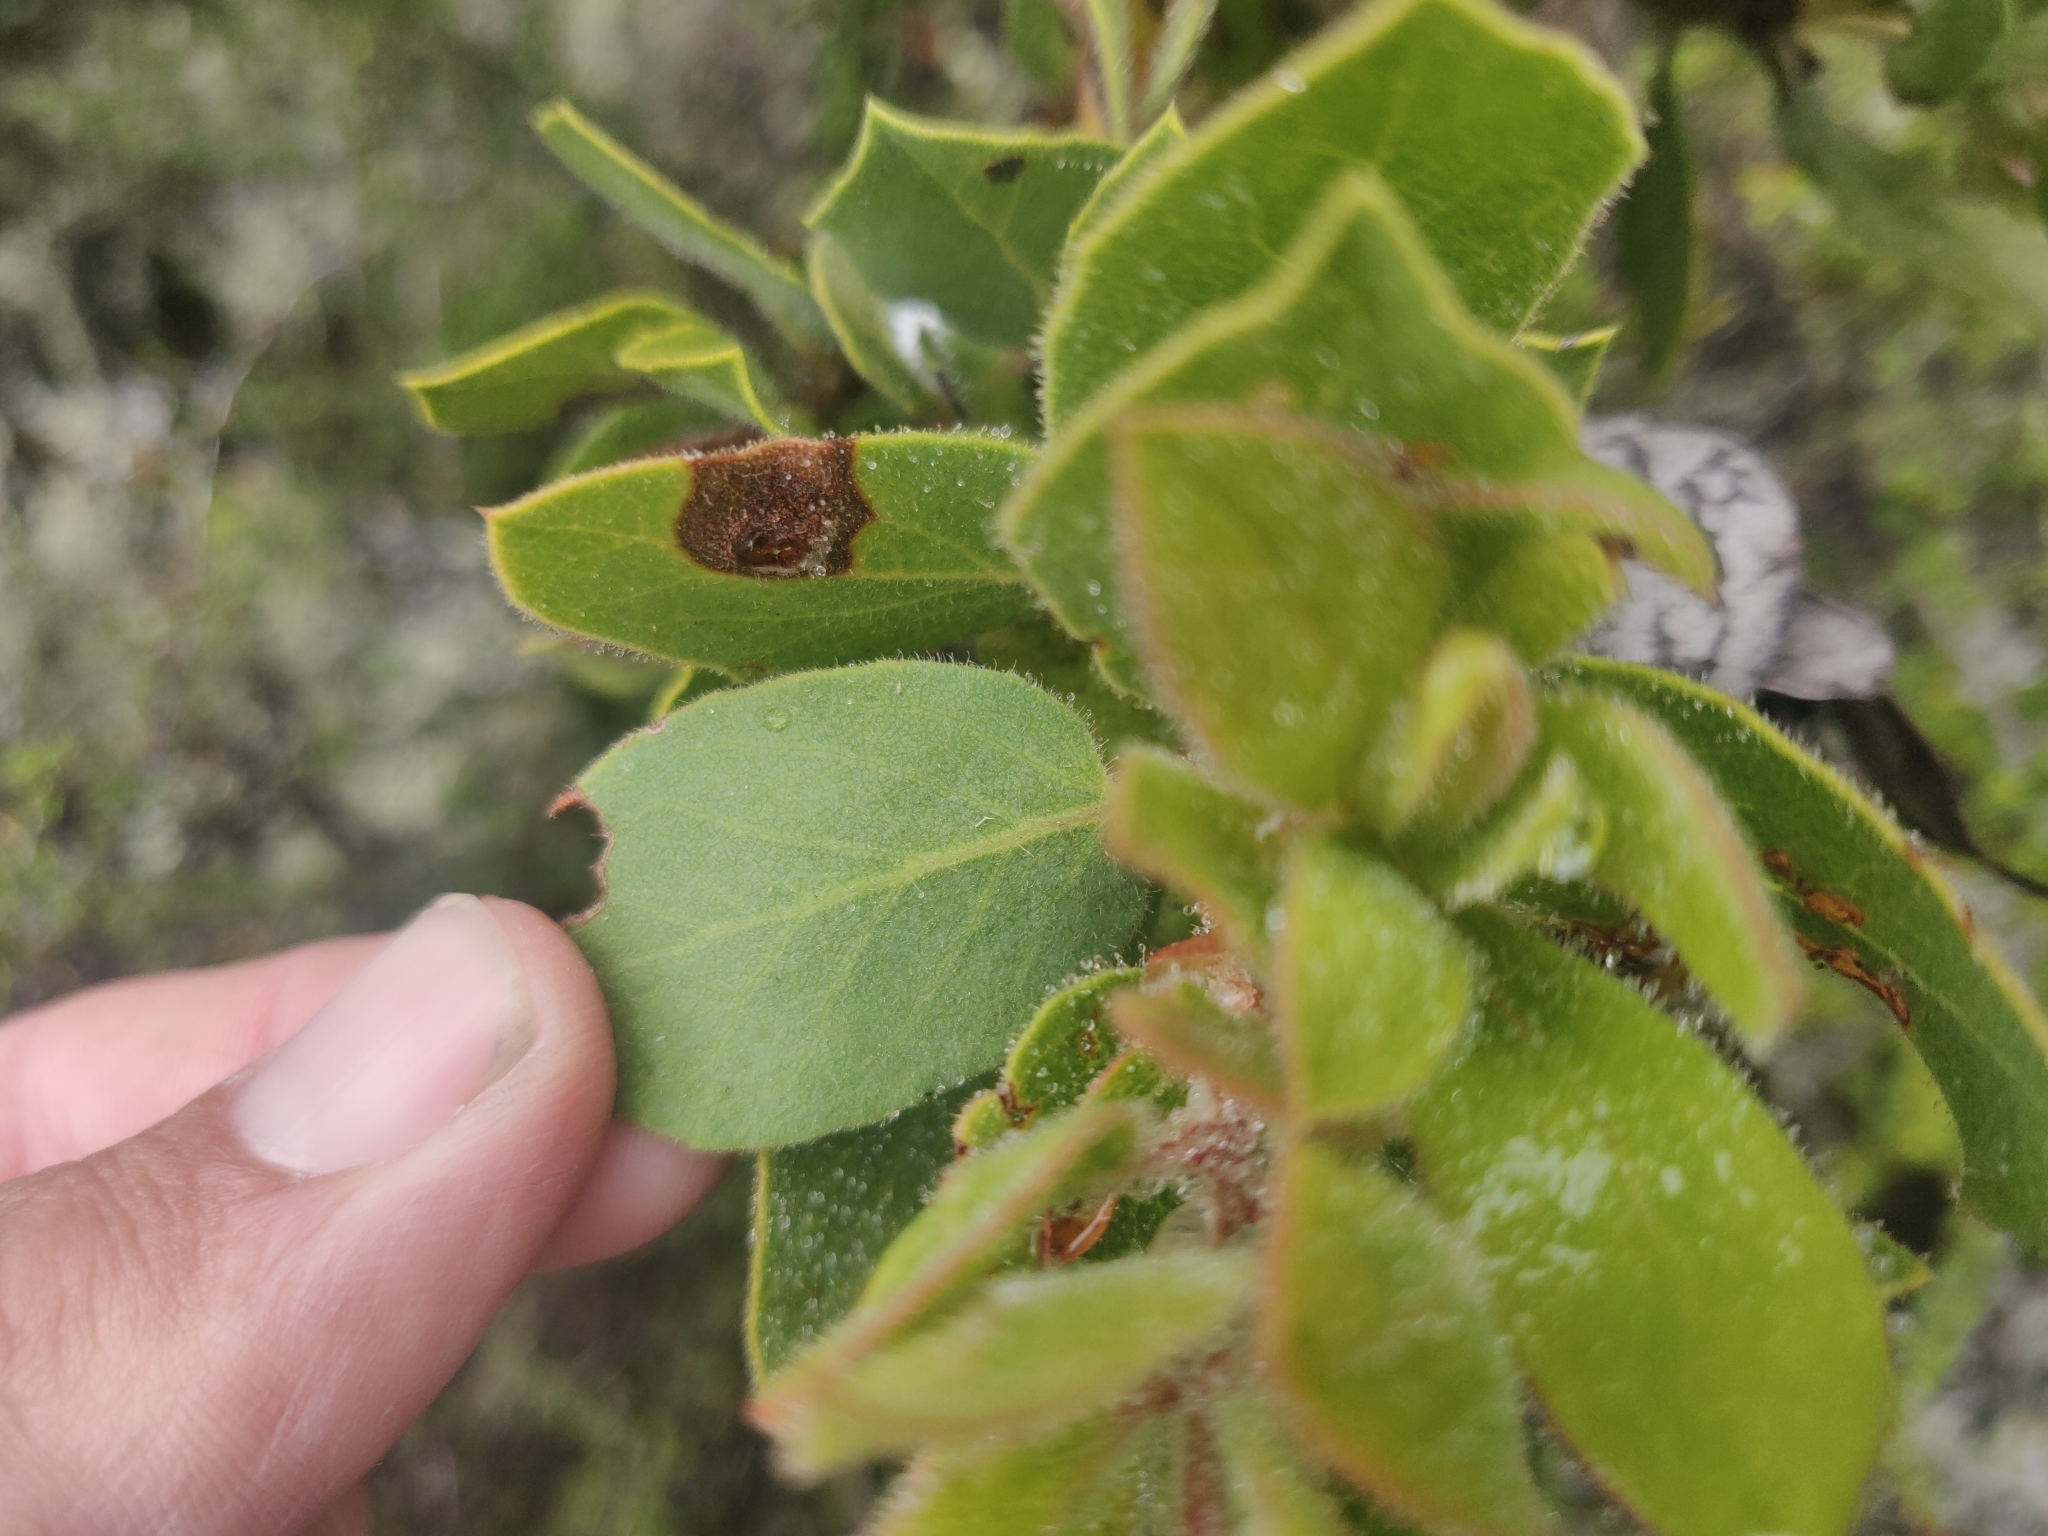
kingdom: Plantae
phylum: Tracheophyta
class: Magnoliopsida
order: Ericales
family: Ericaceae
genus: Arctostaphylos
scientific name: Arctostaphylos glandulosa
